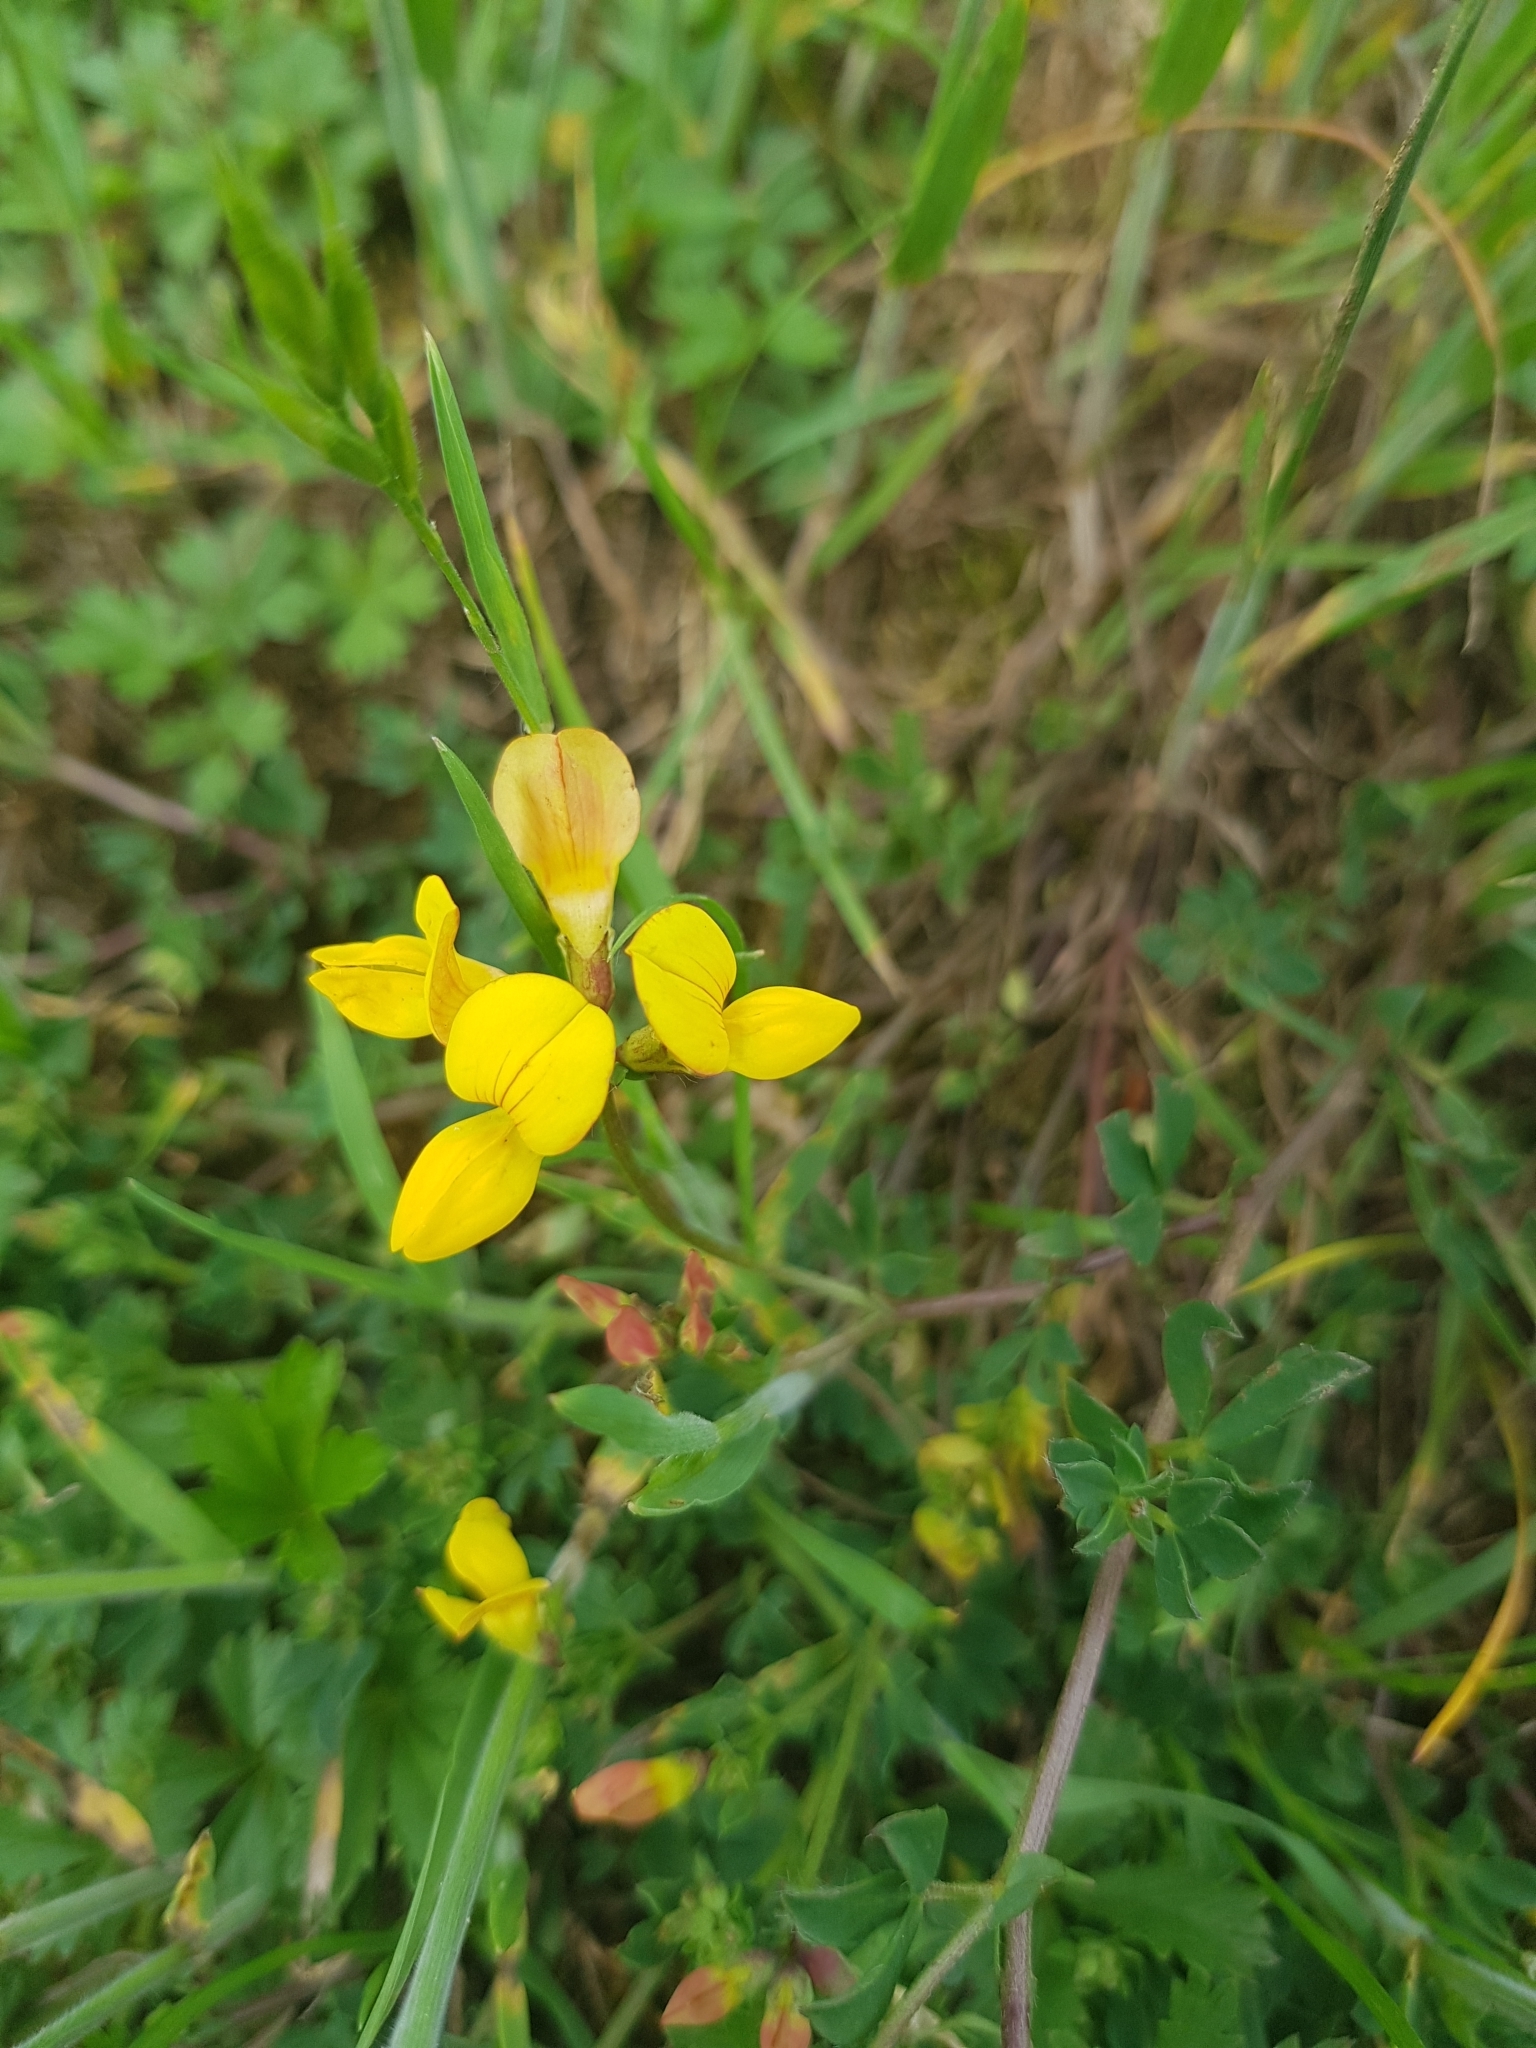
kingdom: Plantae
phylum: Tracheophyta
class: Magnoliopsida
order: Fabales
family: Fabaceae
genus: Lotus
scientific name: Lotus corniculatus
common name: Common bird's-foot-trefoil
